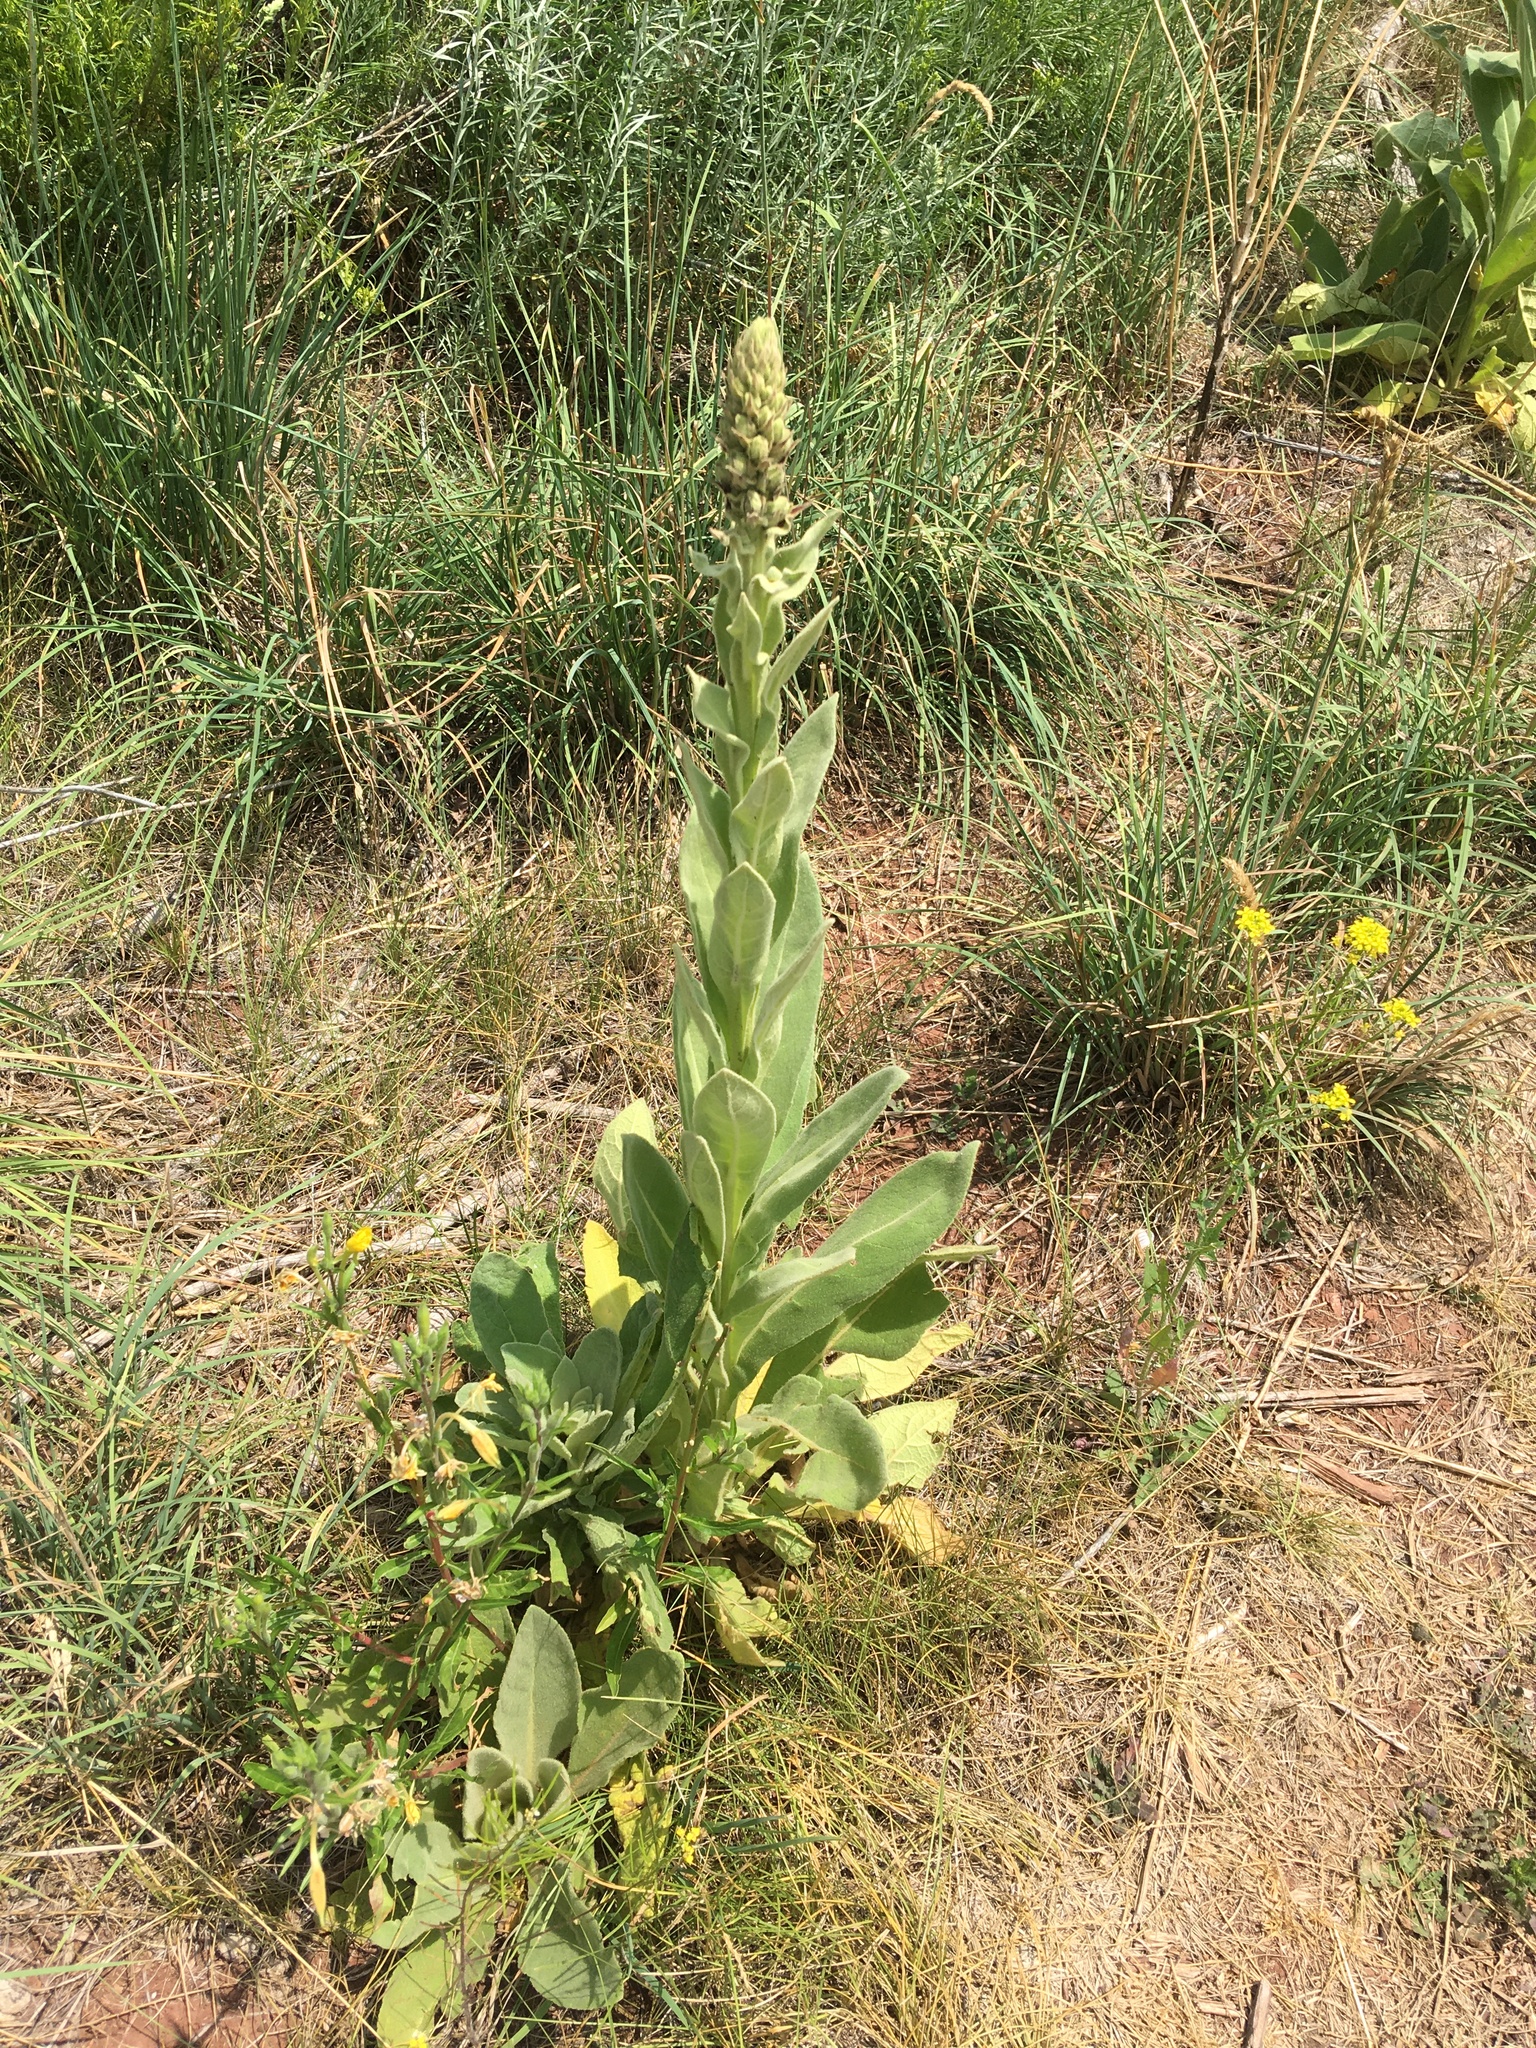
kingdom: Plantae
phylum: Tracheophyta
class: Magnoliopsida
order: Lamiales
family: Scrophulariaceae
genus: Verbascum
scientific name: Verbascum thapsus
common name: Common mullein
